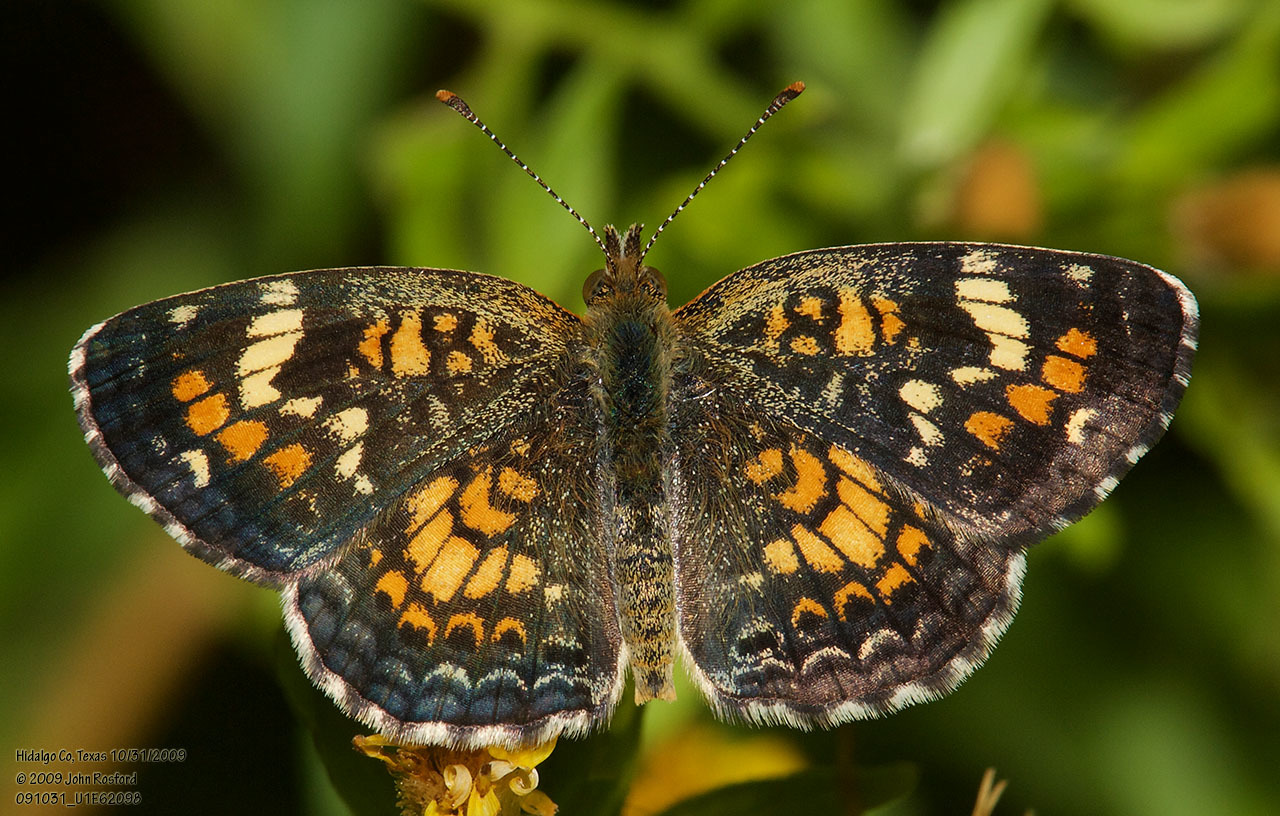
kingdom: Animalia
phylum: Arthropoda
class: Insecta
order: Lepidoptera
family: Nymphalidae
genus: Phyciodes
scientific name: Phyciodes phaon
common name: Phaon crescent
